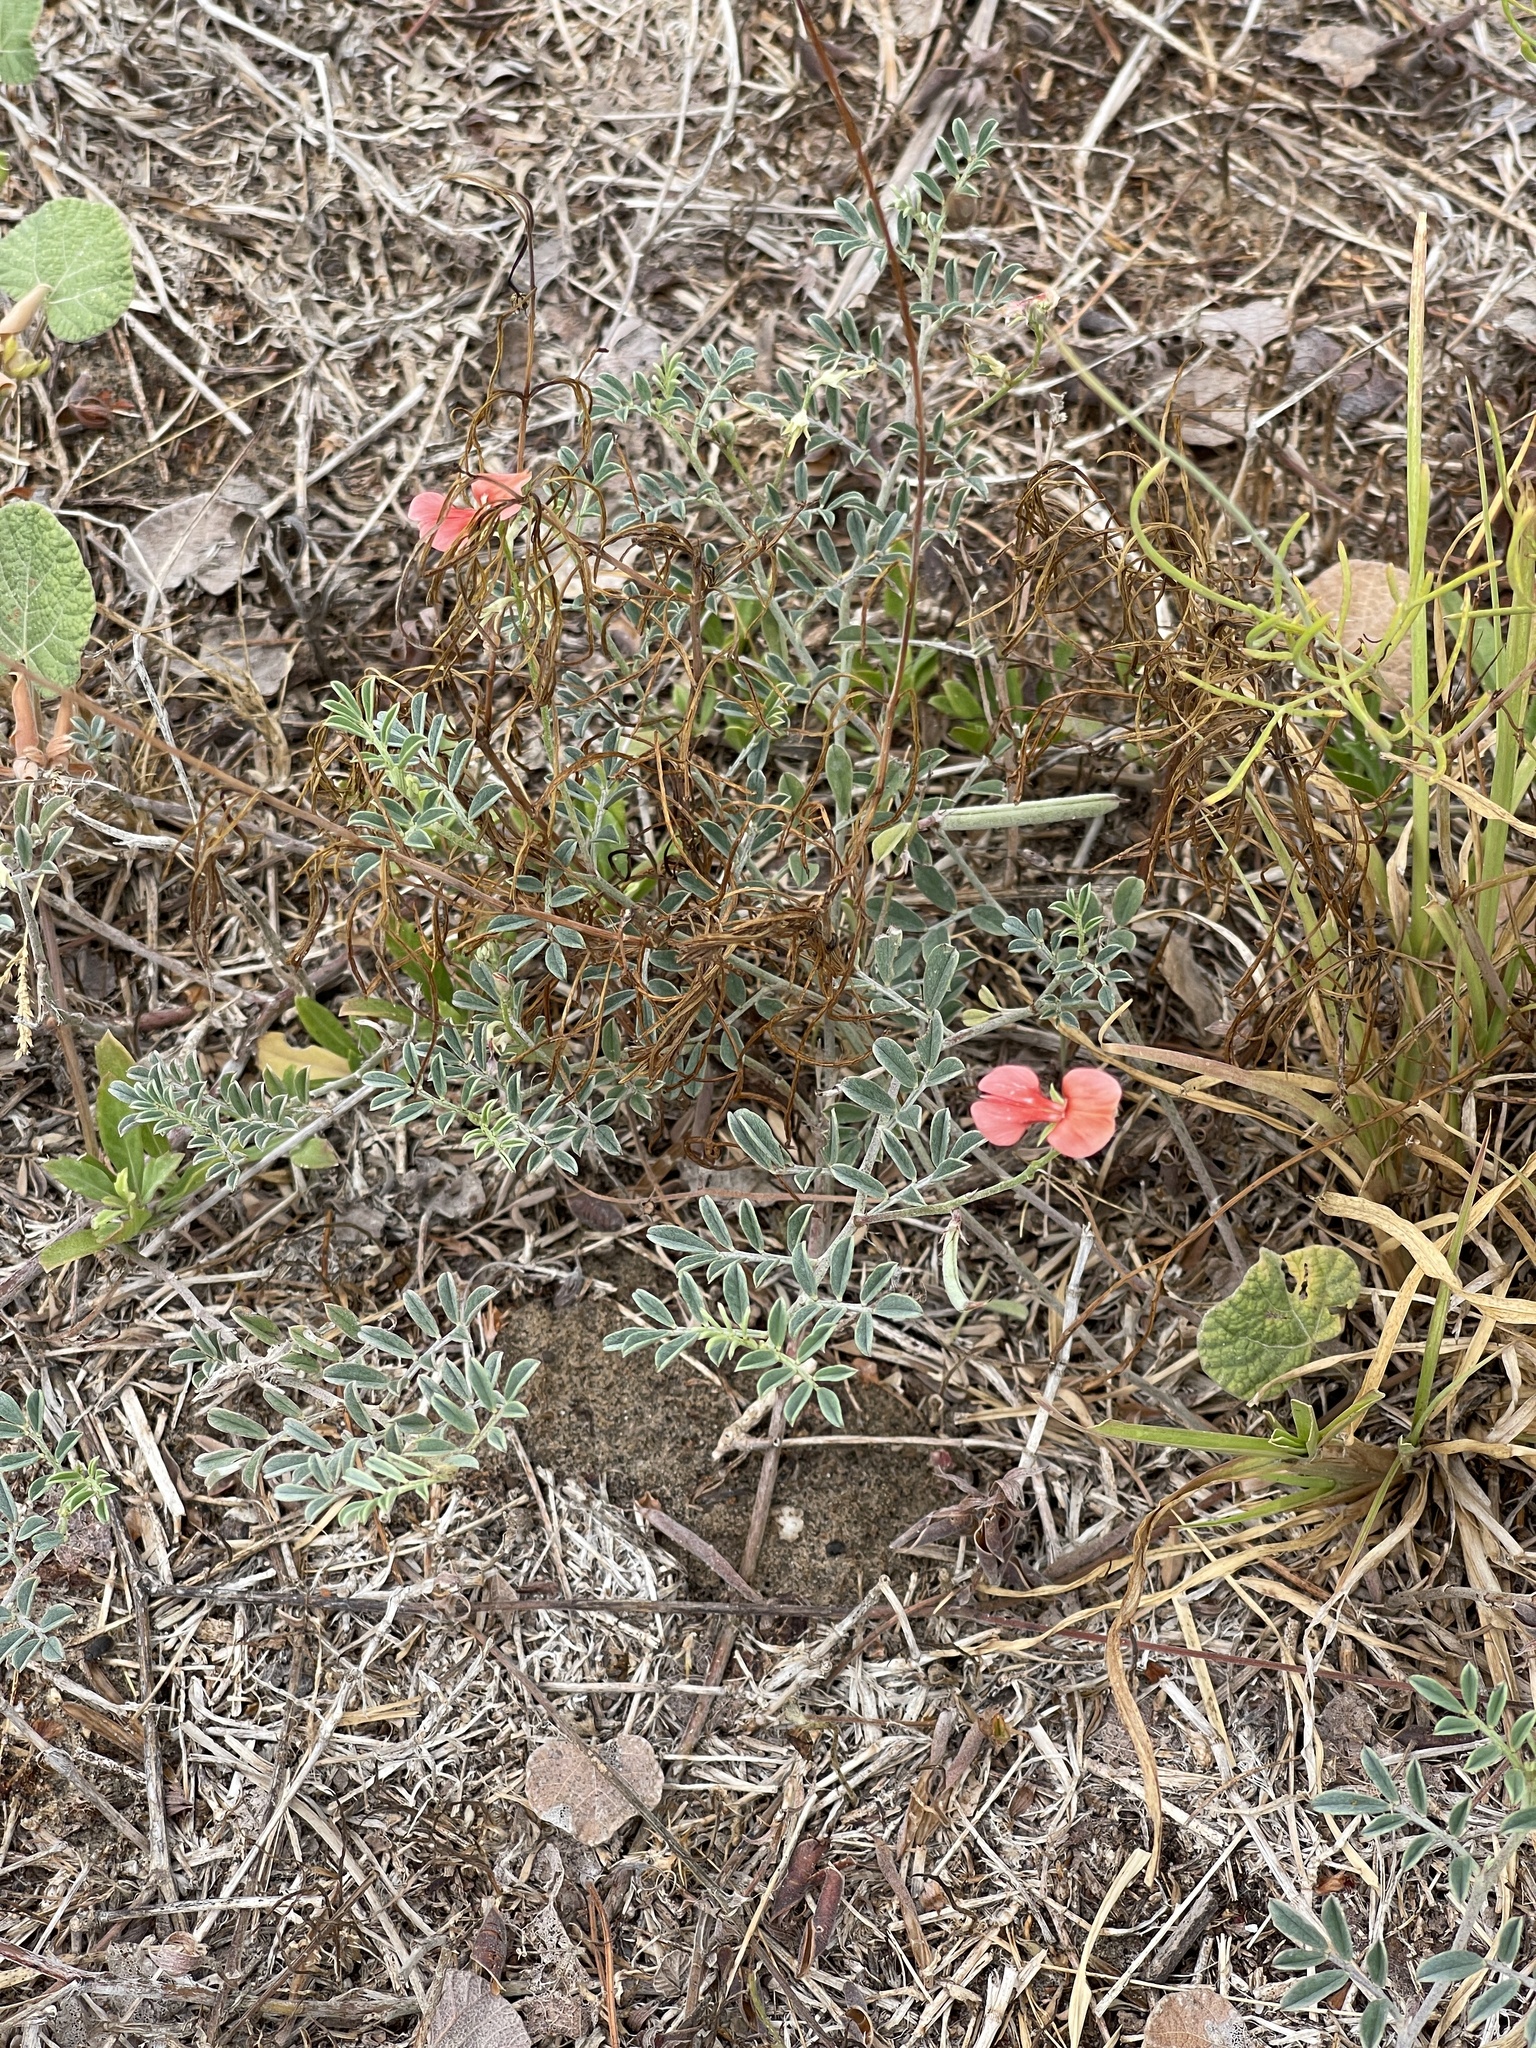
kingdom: Plantae
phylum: Tracheophyta
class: Magnoliopsida
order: Fabales
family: Fabaceae
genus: Indigofera
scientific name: Indigofera miniata
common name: Coast indigo
